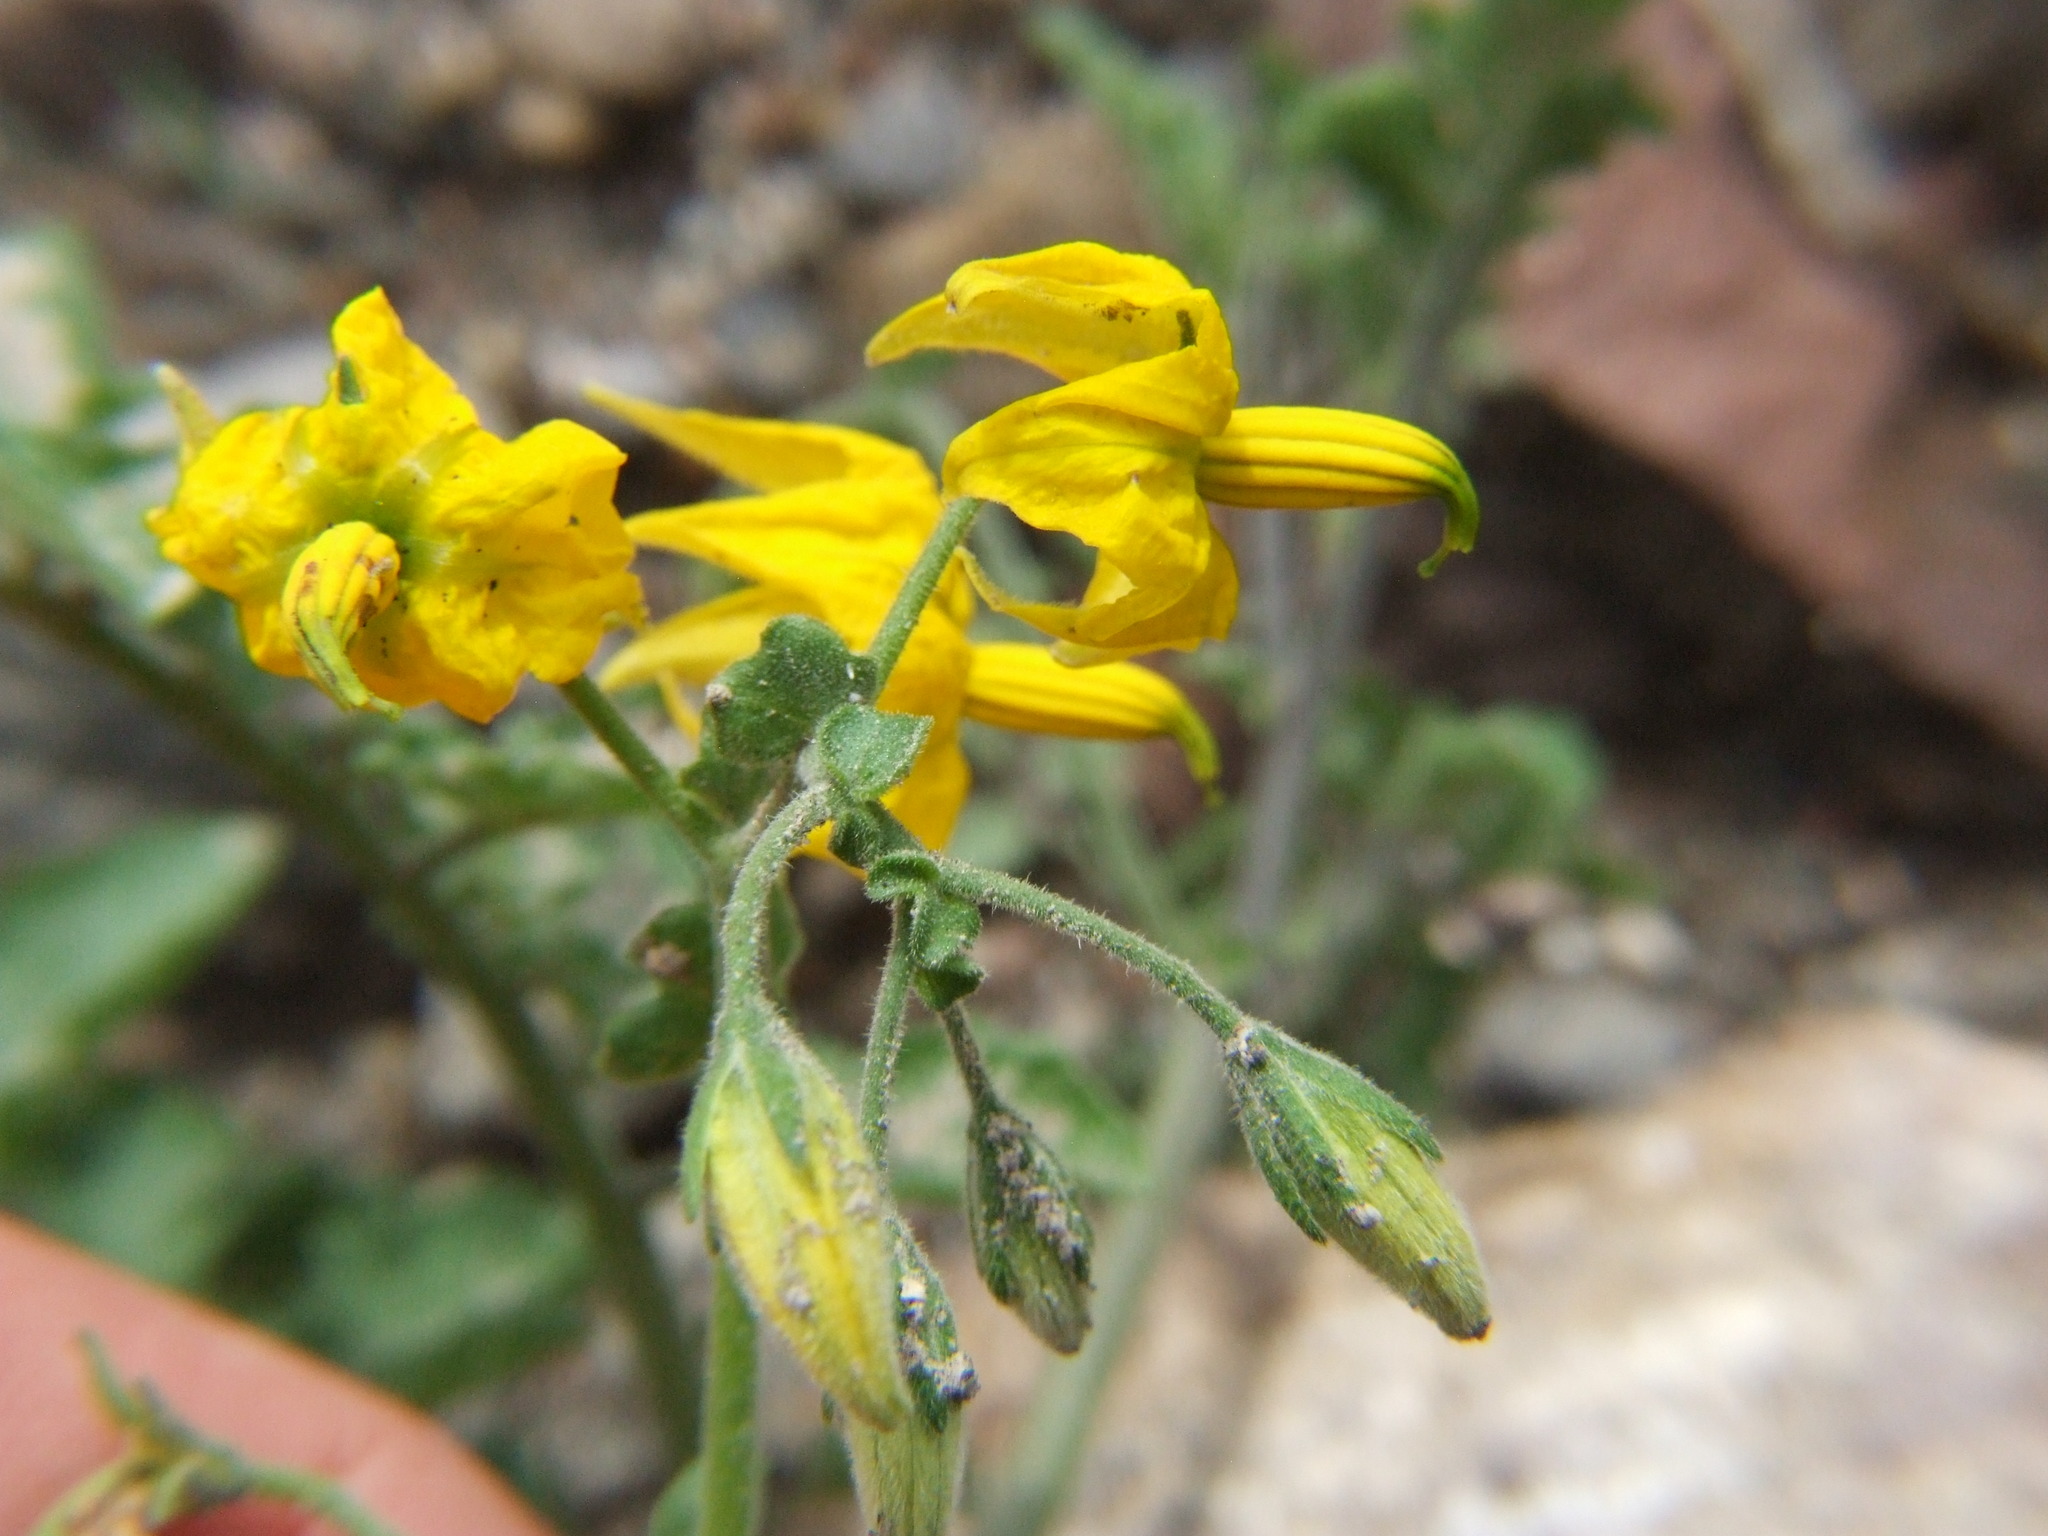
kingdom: Plantae
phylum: Tracheophyta
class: Magnoliopsida
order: Solanales
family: Solanaceae
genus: Solanum
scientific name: Solanum peruvianum
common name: Peruvian nightshade
